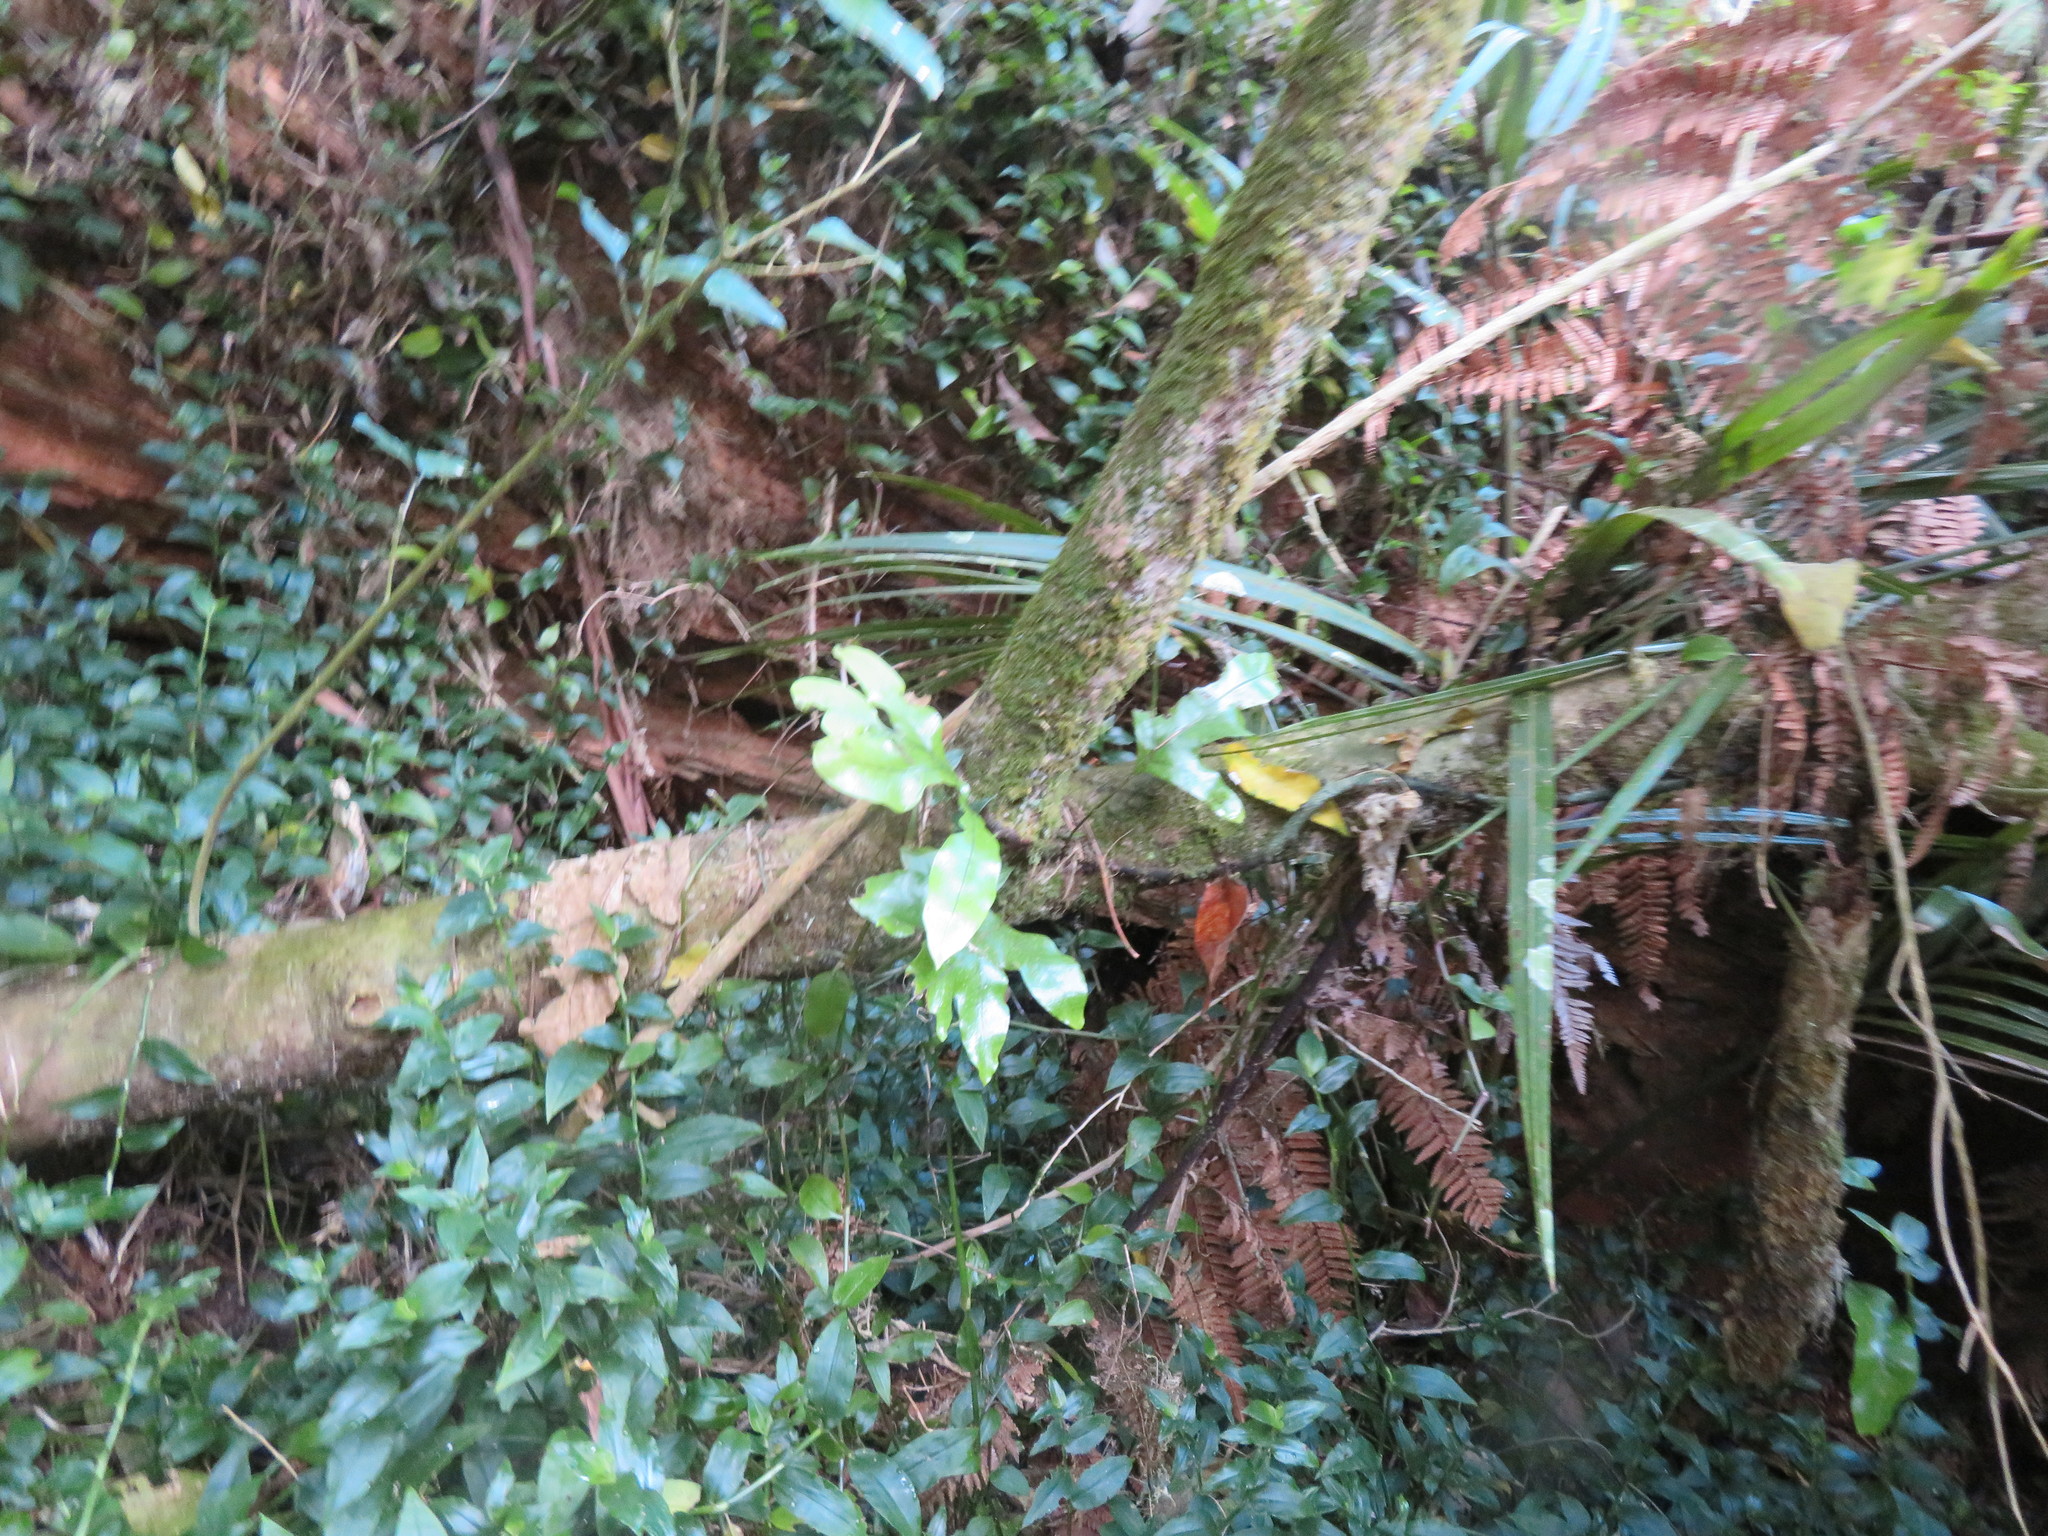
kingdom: Plantae
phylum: Tracheophyta
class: Polypodiopsida
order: Polypodiales
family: Polypodiaceae
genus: Lecanopteris
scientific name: Lecanopteris pustulata
